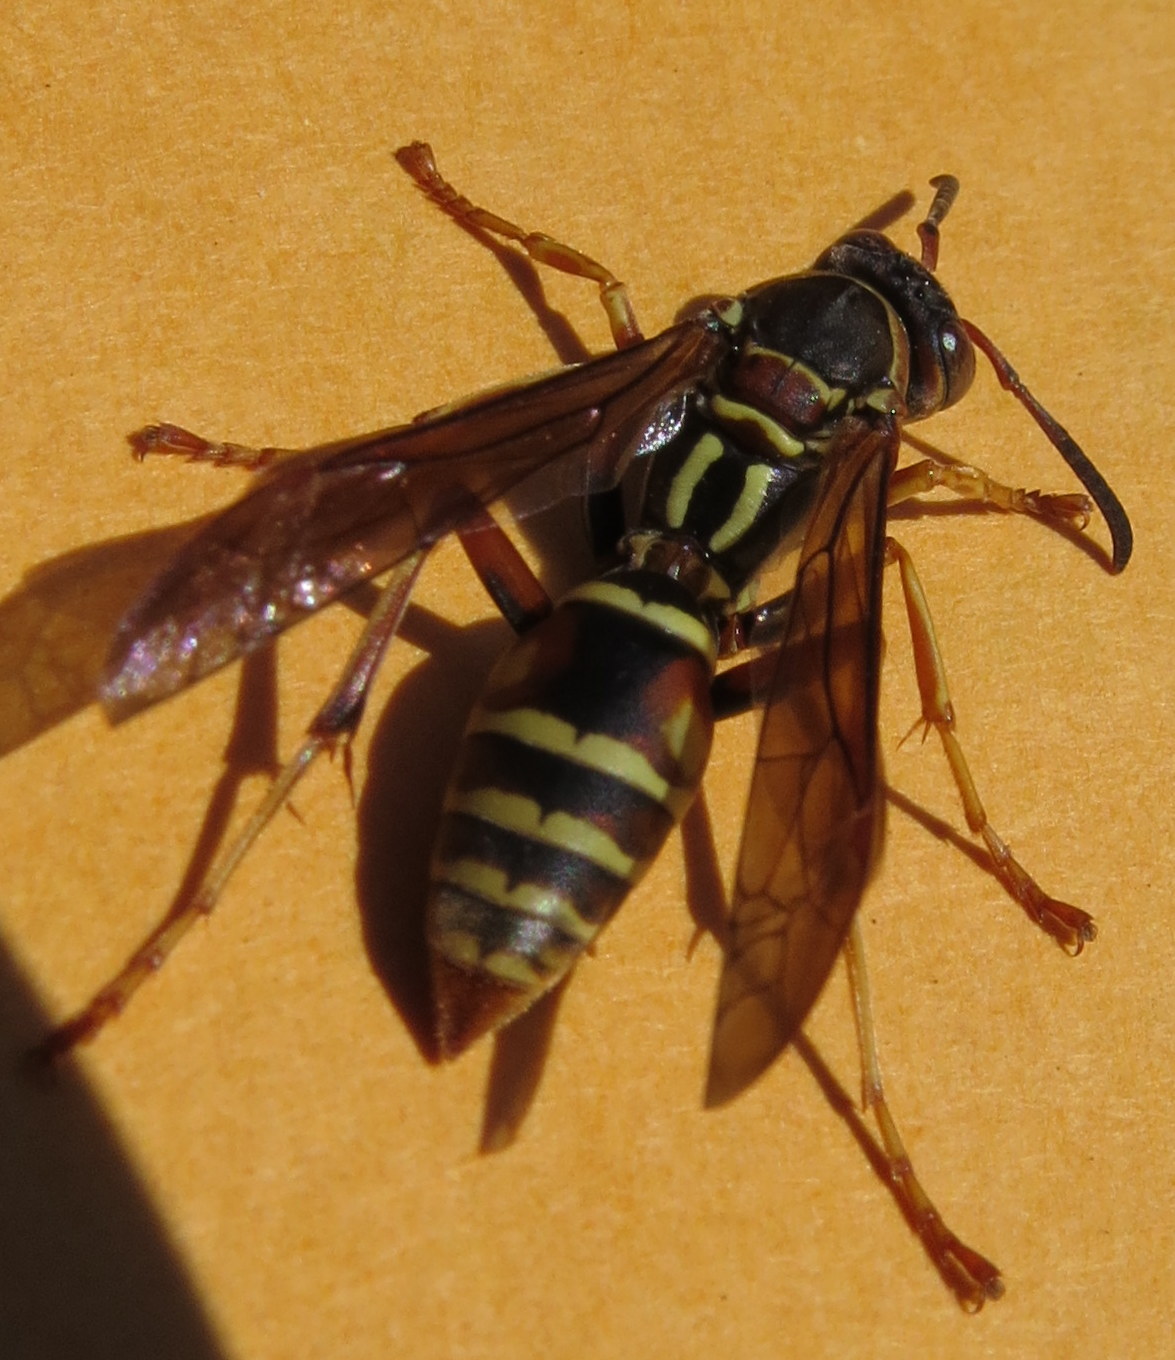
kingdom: Animalia
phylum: Arthropoda
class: Insecta
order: Hymenoptera
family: Eumenidae
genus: Polistes
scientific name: Polistes fuscatus
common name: Dark paper wasp
